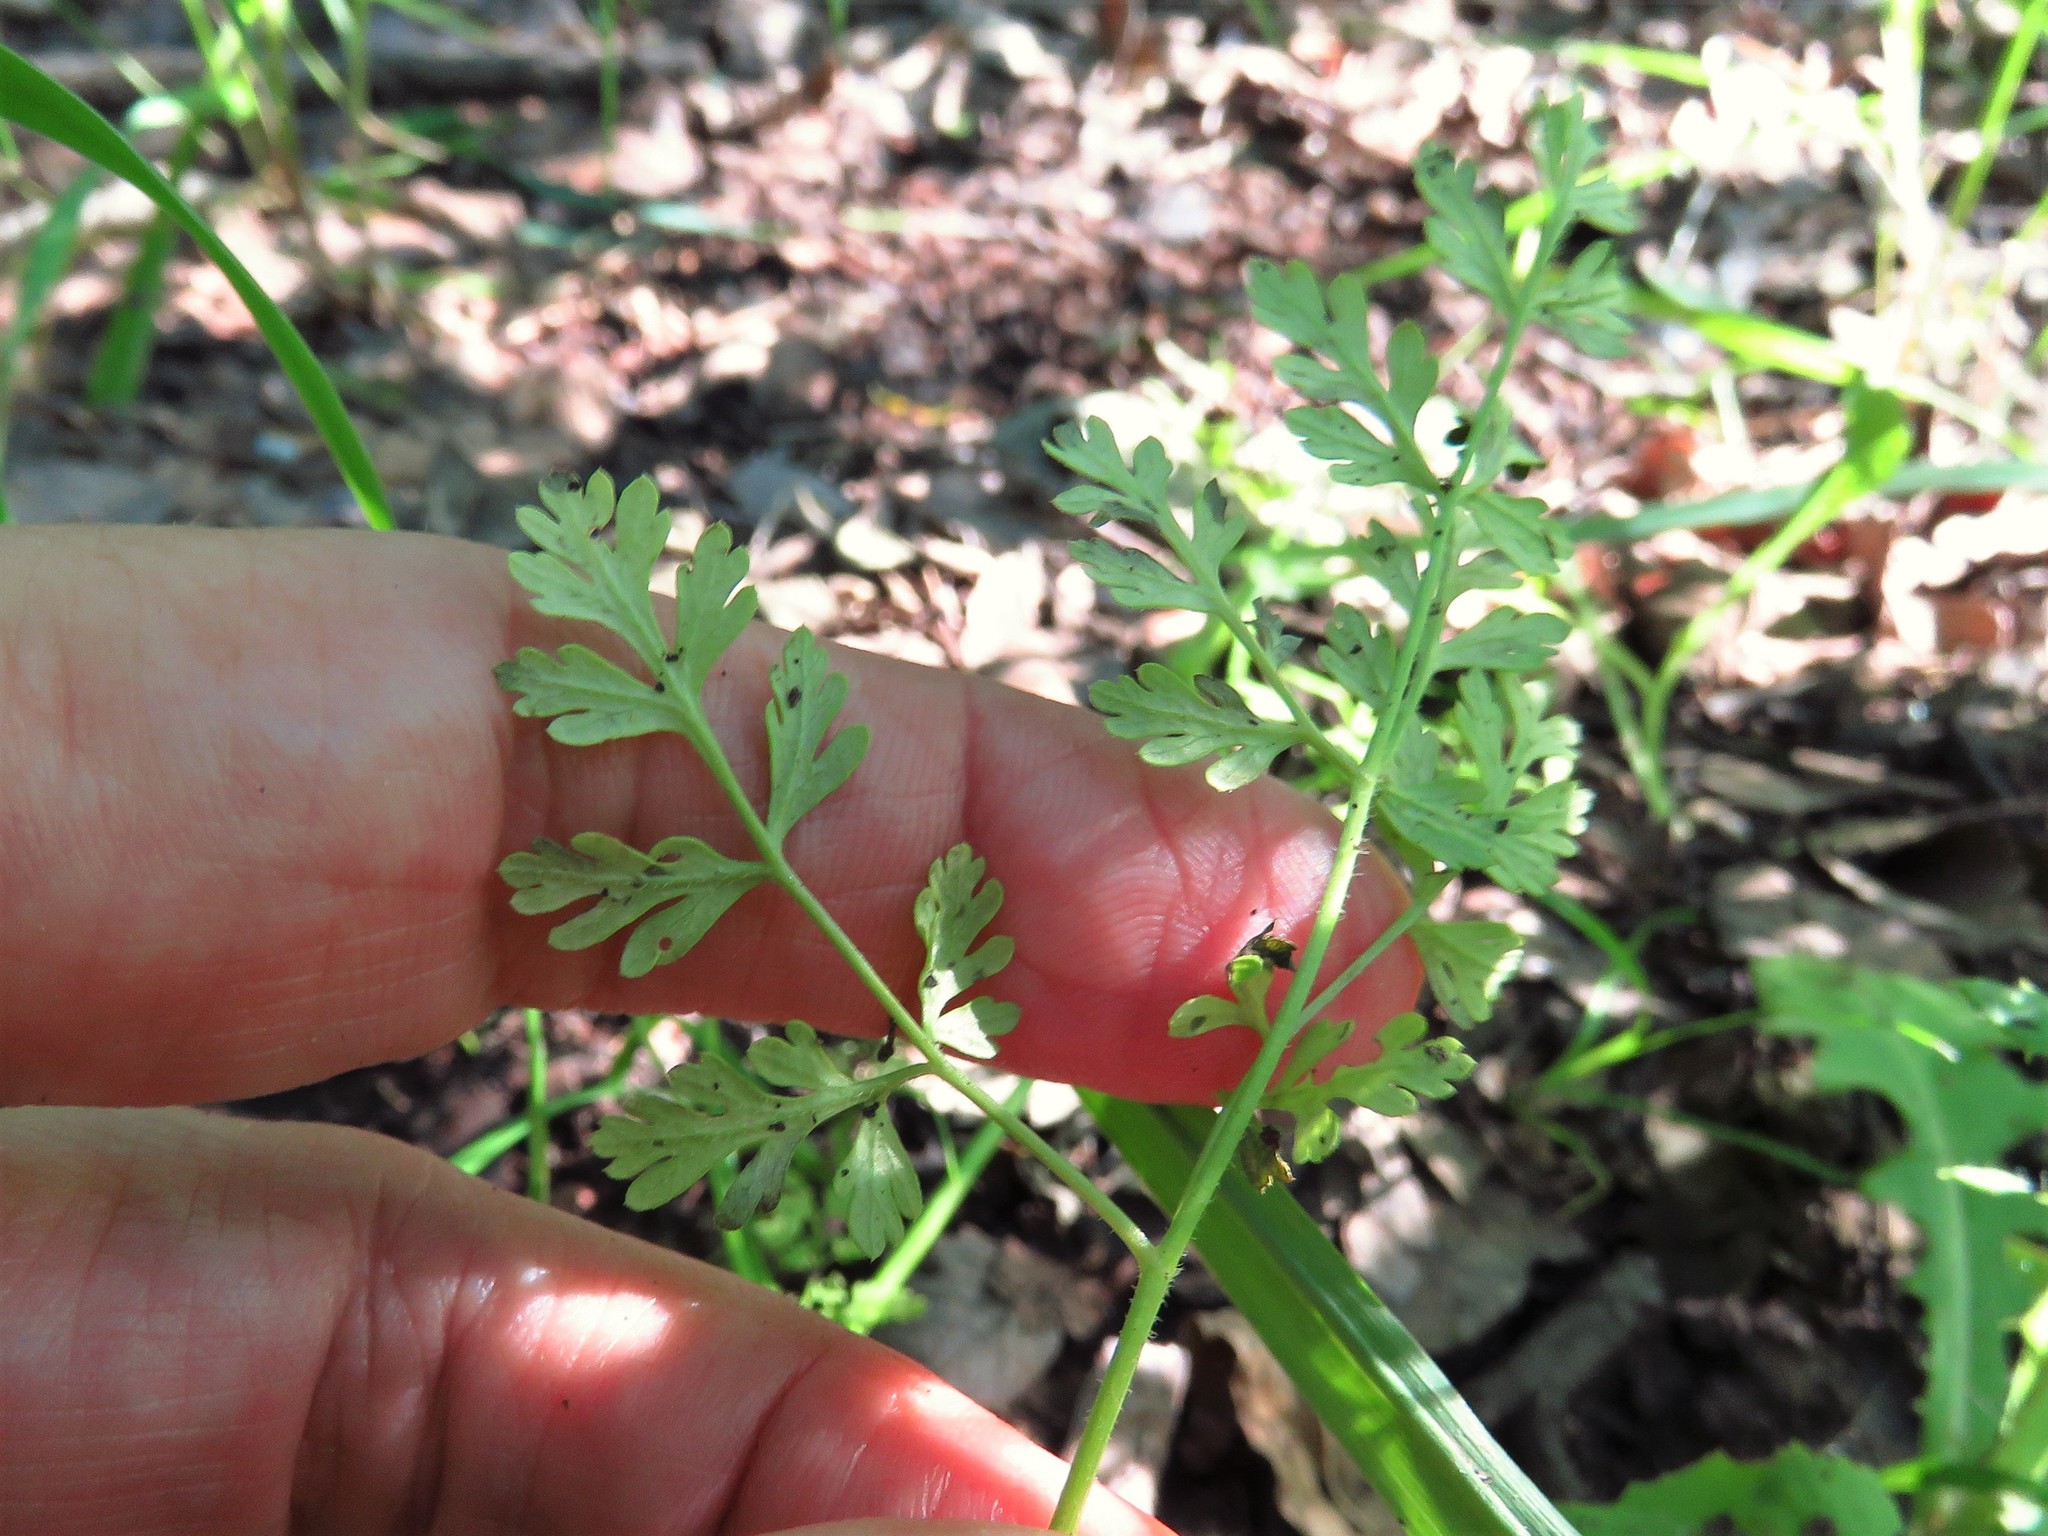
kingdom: Plantae
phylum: Tracheophyta
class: Magnoliopsida
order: Apiales
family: Apiaceae
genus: Chaerophyllum
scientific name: Chaerophyllum tainturieri
